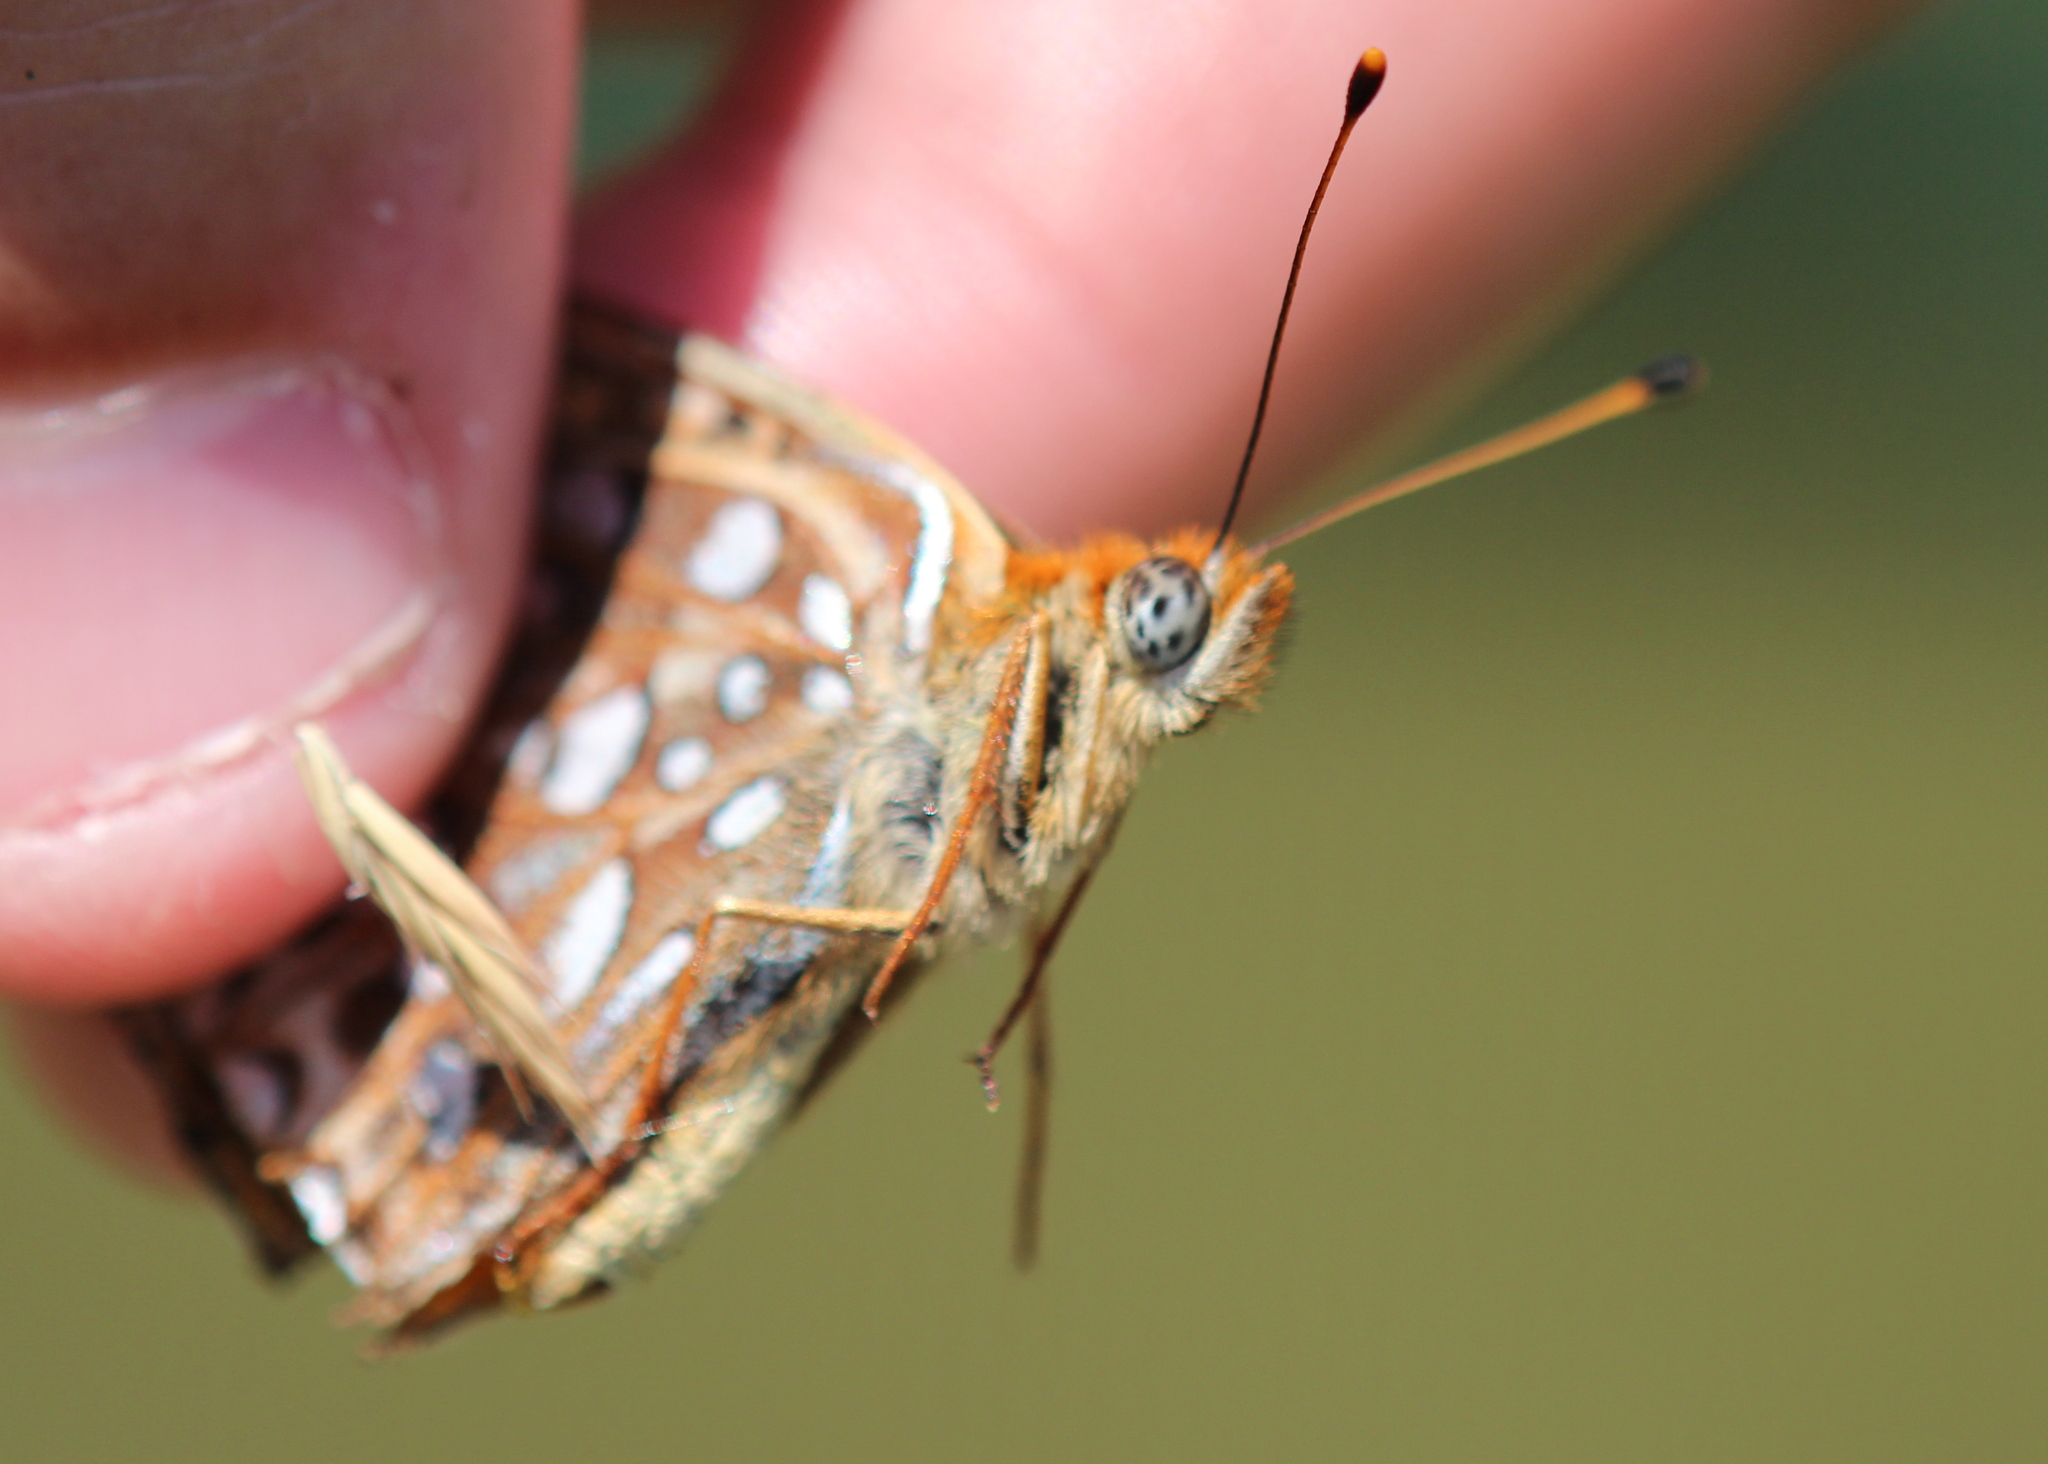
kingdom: Animalia
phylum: Arthropoda
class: Insecta
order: Lepidoptera
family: Nymphalidae
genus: Speyeria
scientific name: Speyeria atlantis
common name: Atlantis fritillary
